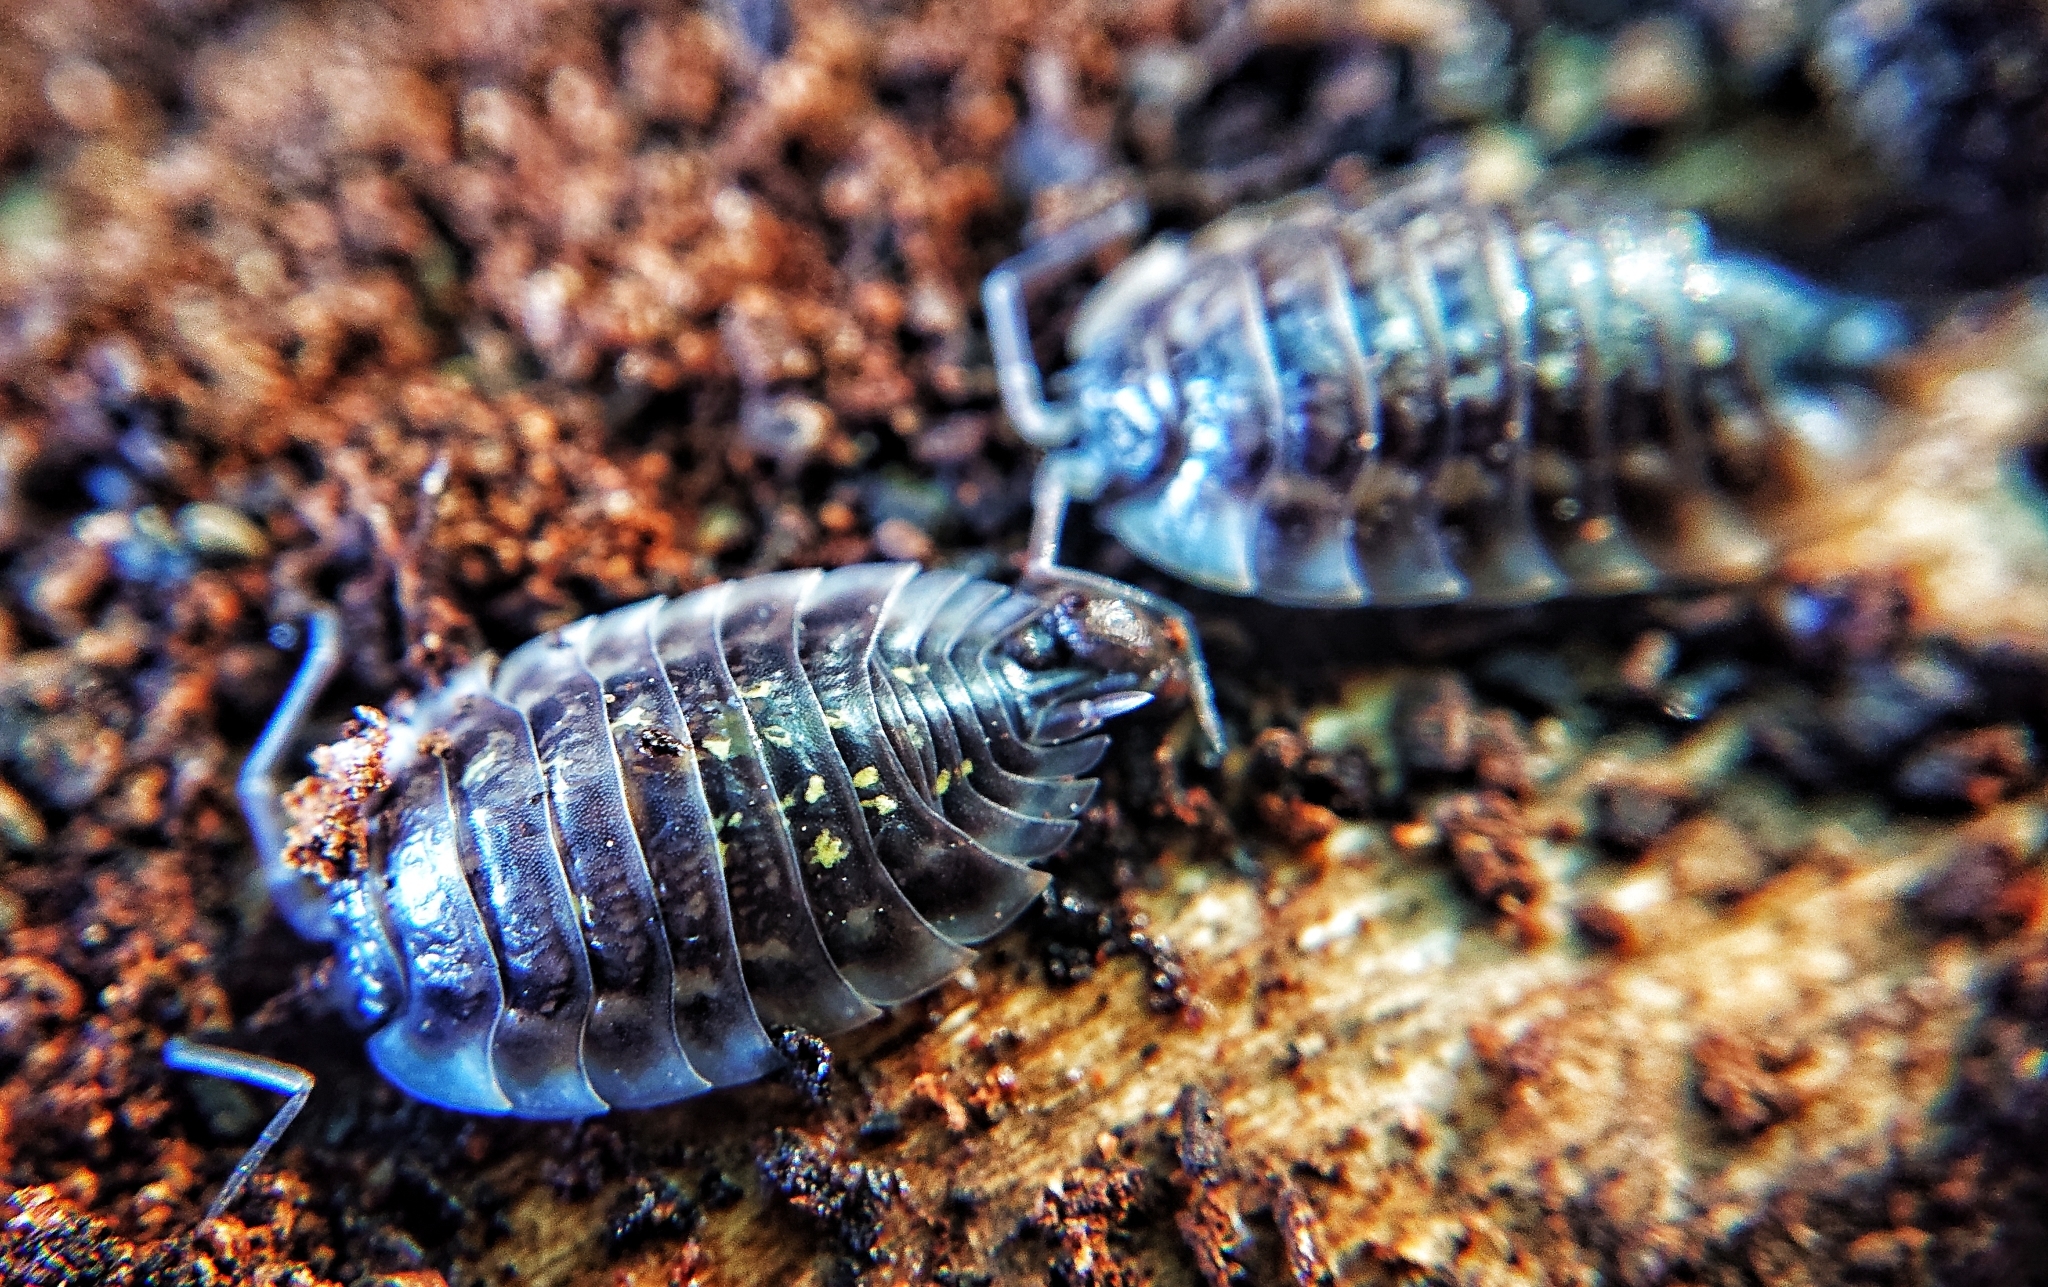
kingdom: Animalia
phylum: Arthropoda
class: Malacostraca
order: Isopoda
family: Oniscidae
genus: Oniscus
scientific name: Oniscus asellus
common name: Common shiny woodlouse
